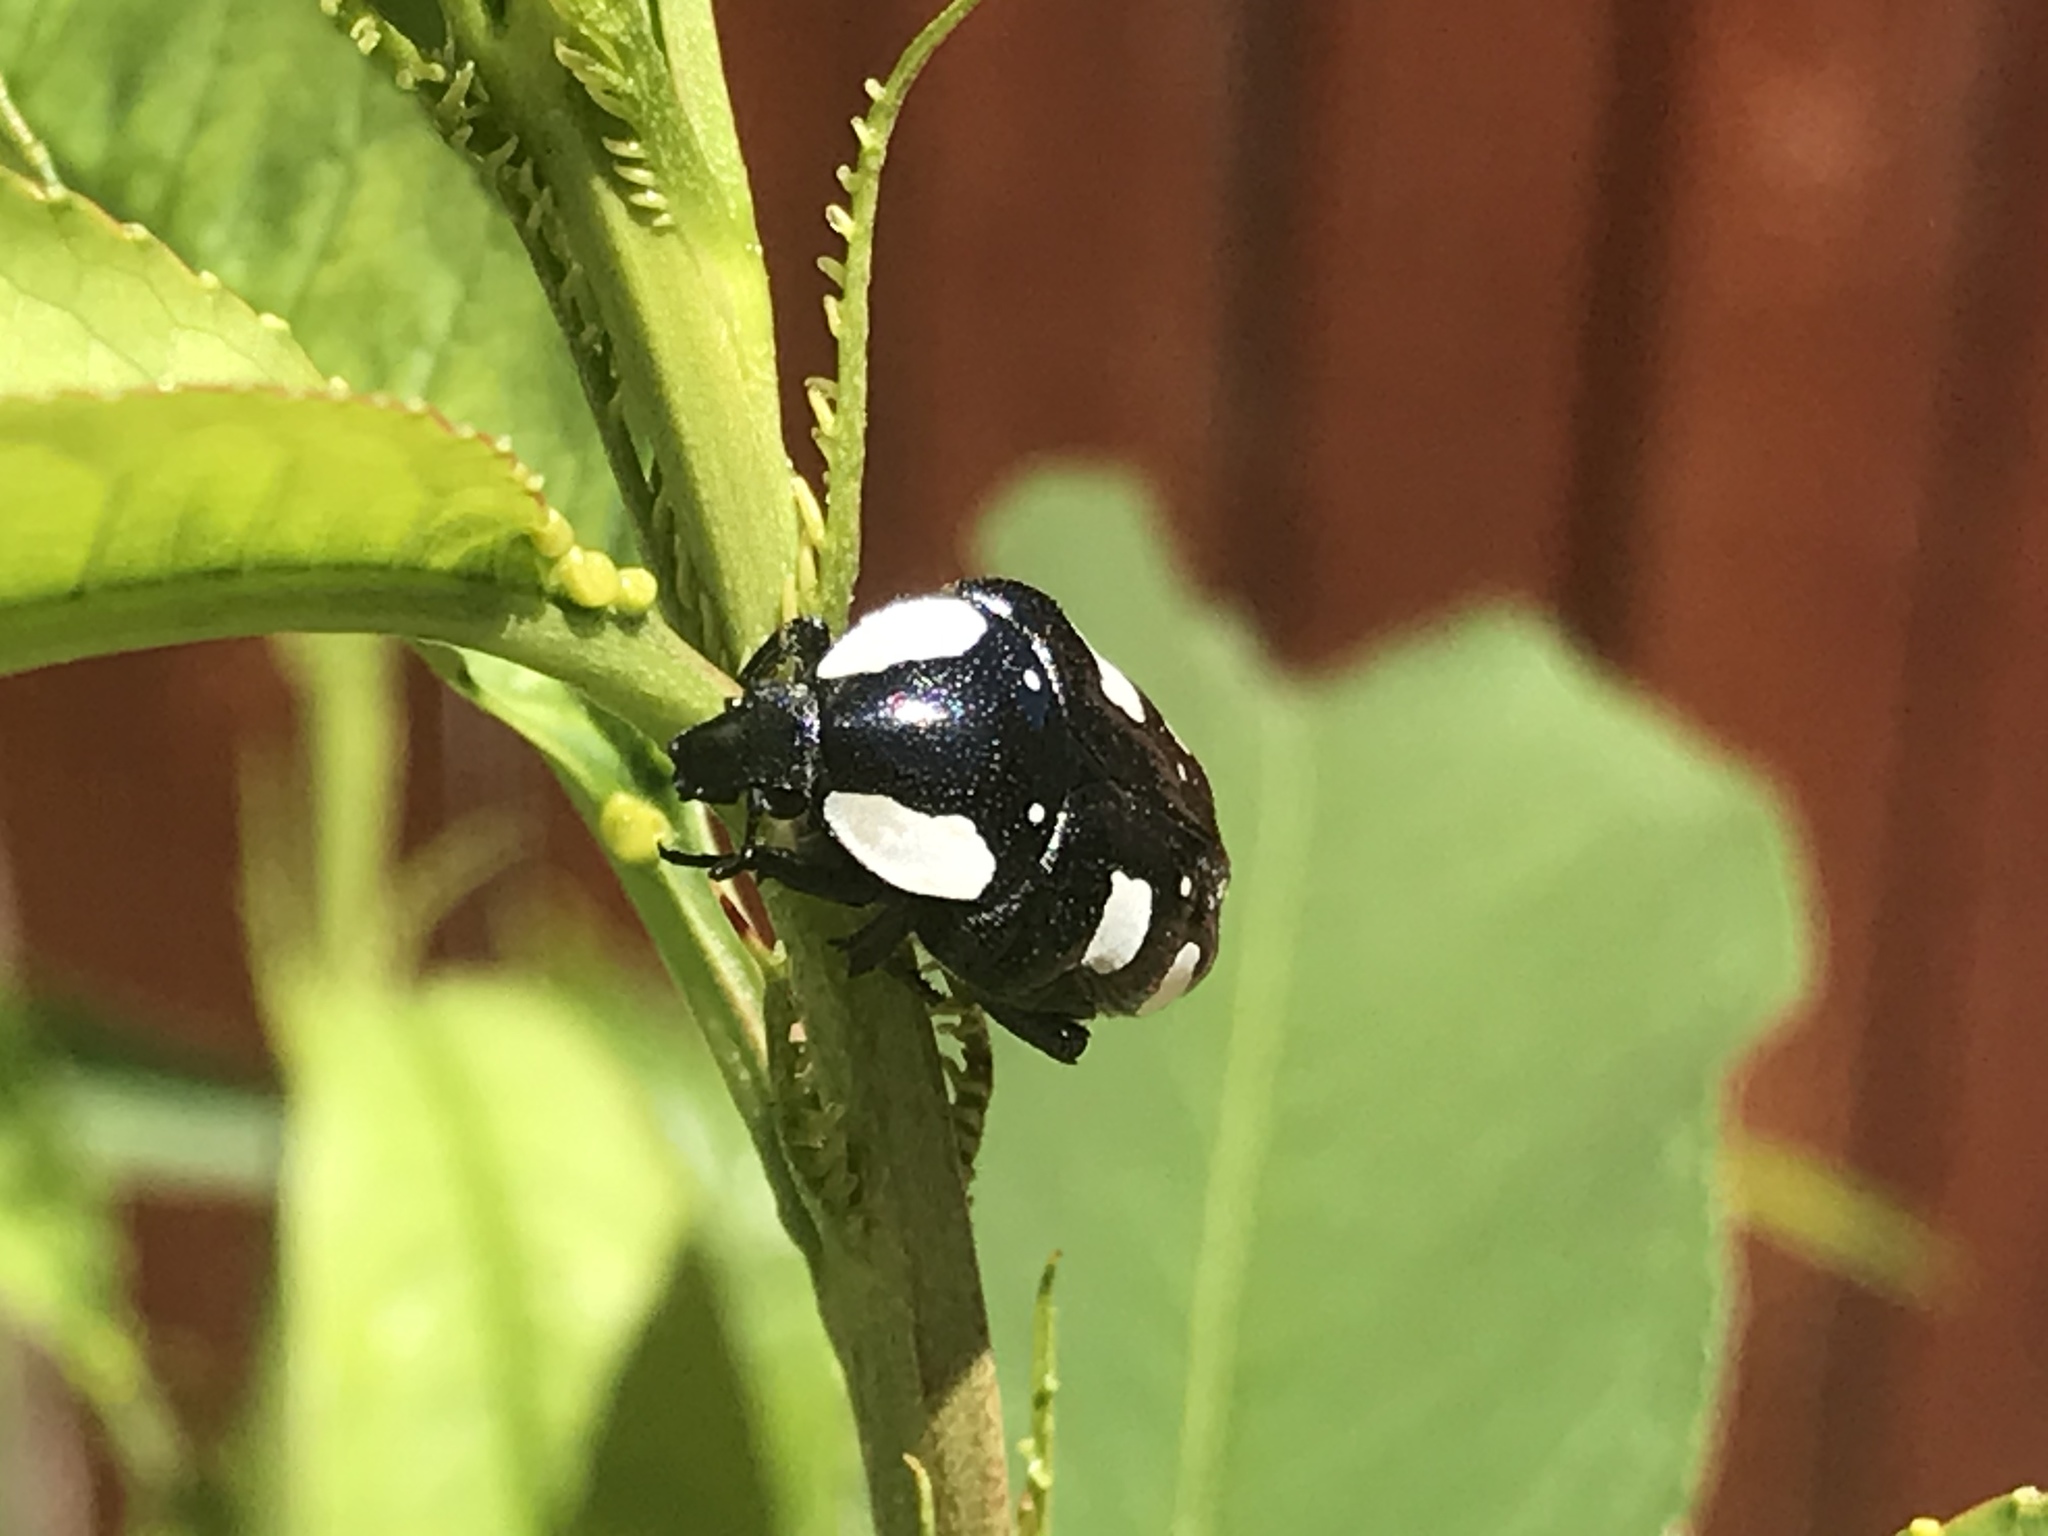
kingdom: Animalia
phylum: Arthropoda
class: Insecta
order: Coleoptera
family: Scarabaeidae
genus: Mausoleopsis
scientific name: Mausoleopsis amabilis
